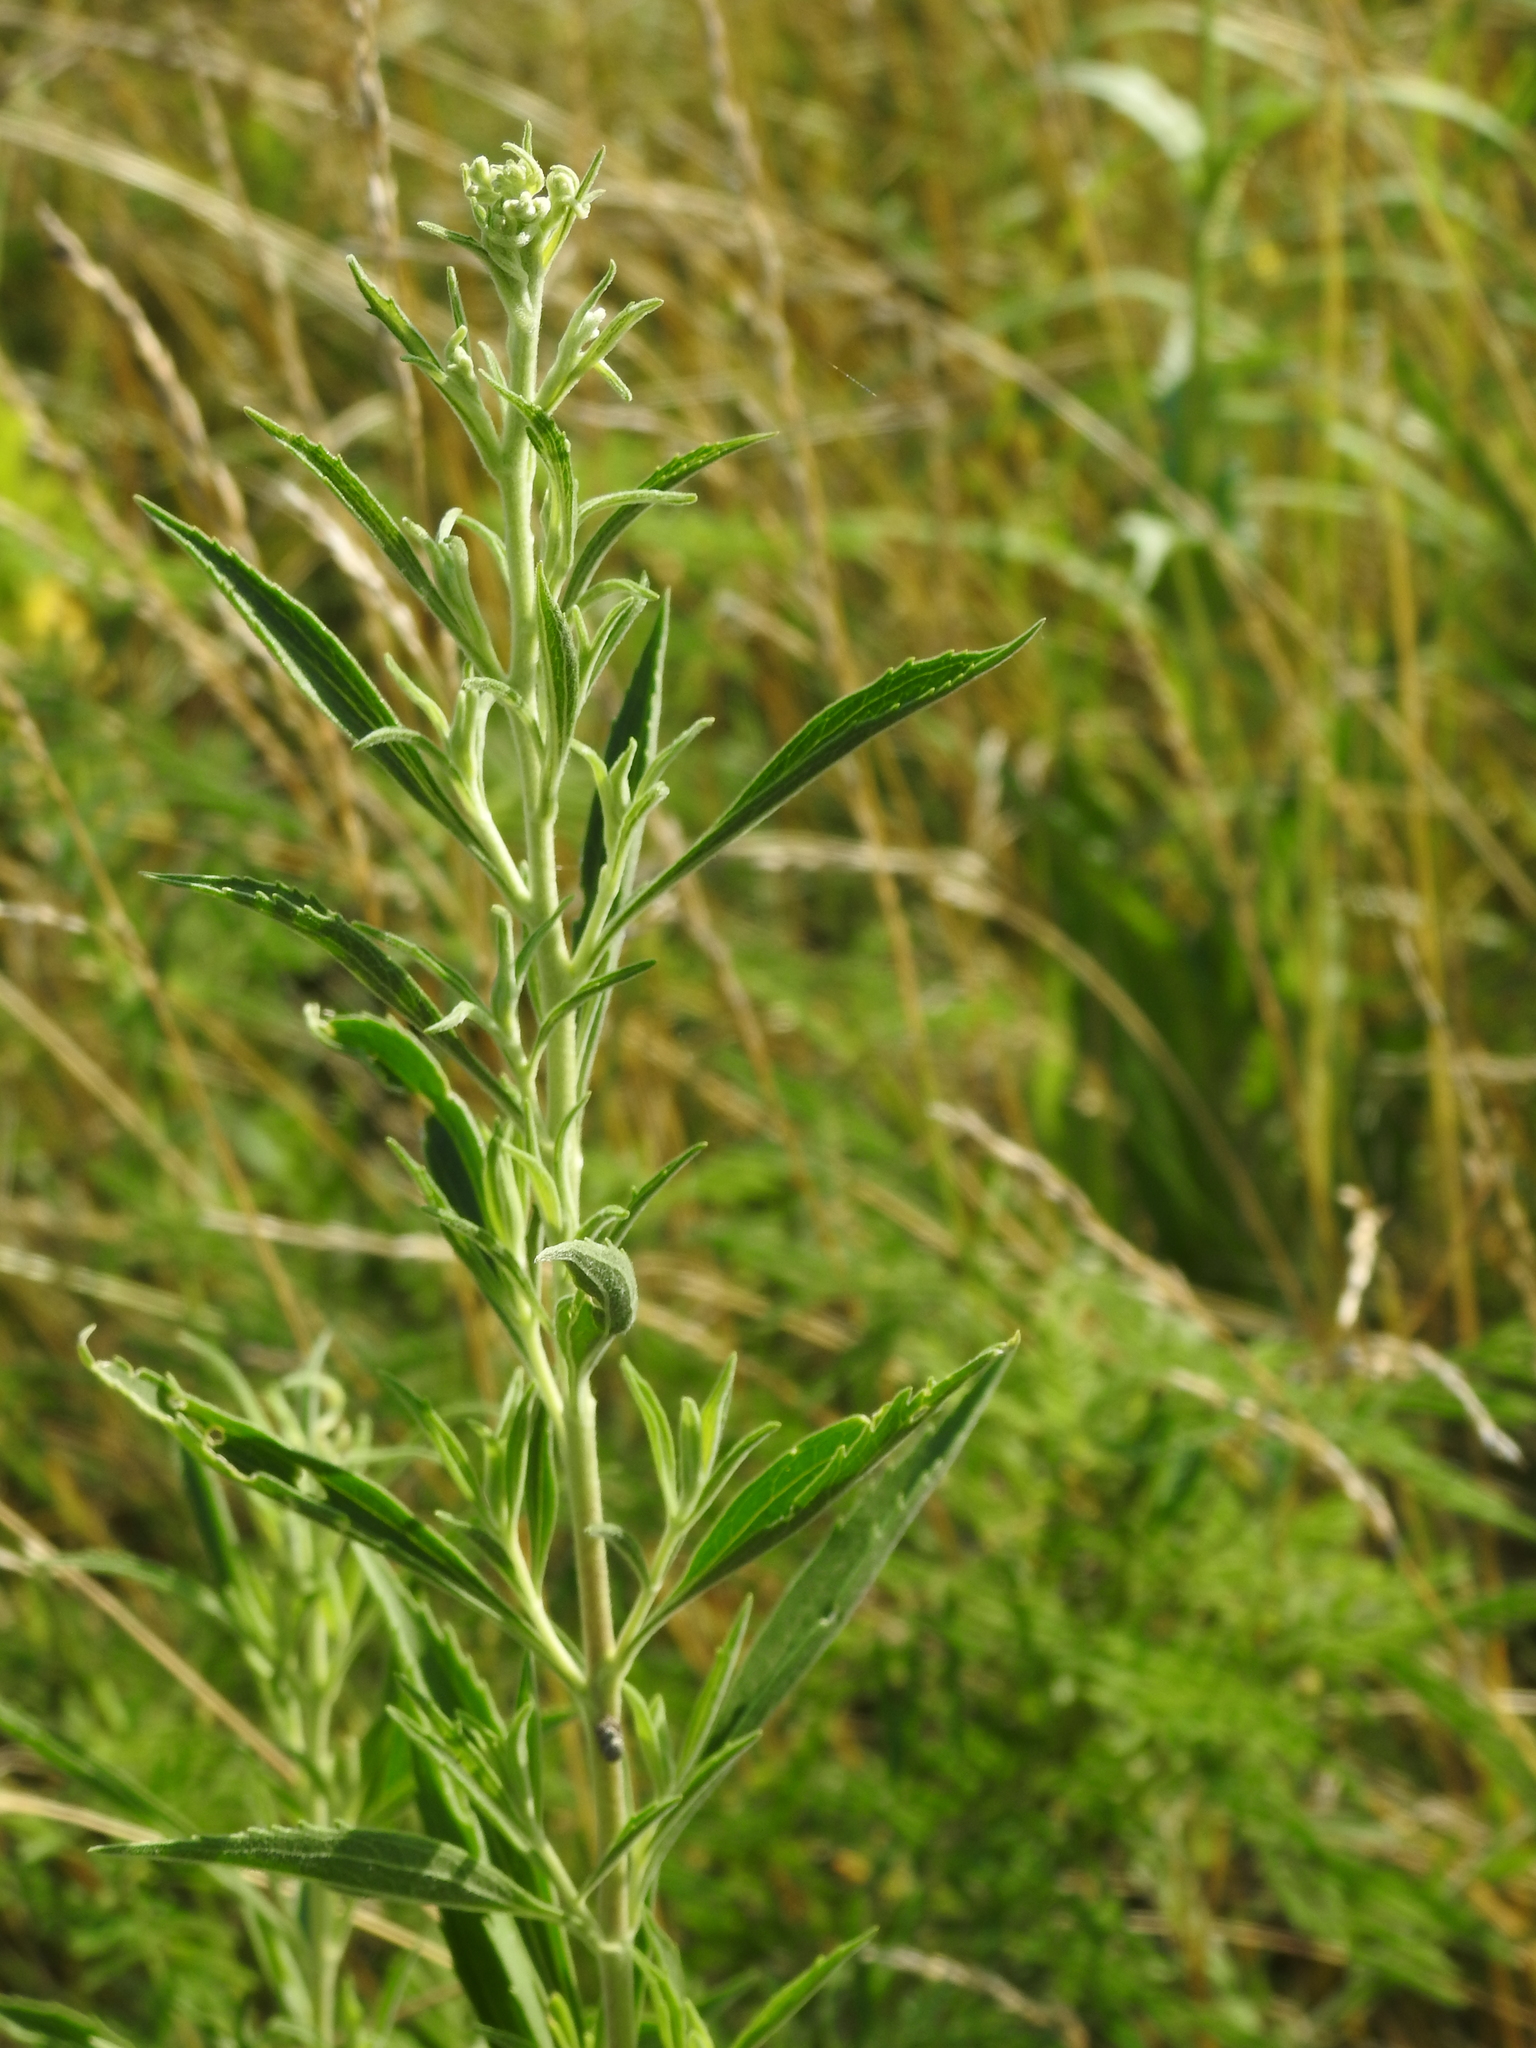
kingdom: Plantae
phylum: Tracheophyta
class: Magnoliopsida
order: Asterales
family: Asteraceae
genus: Eupatorium
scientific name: Eupatorium altissimum
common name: Tall thoroughwort
